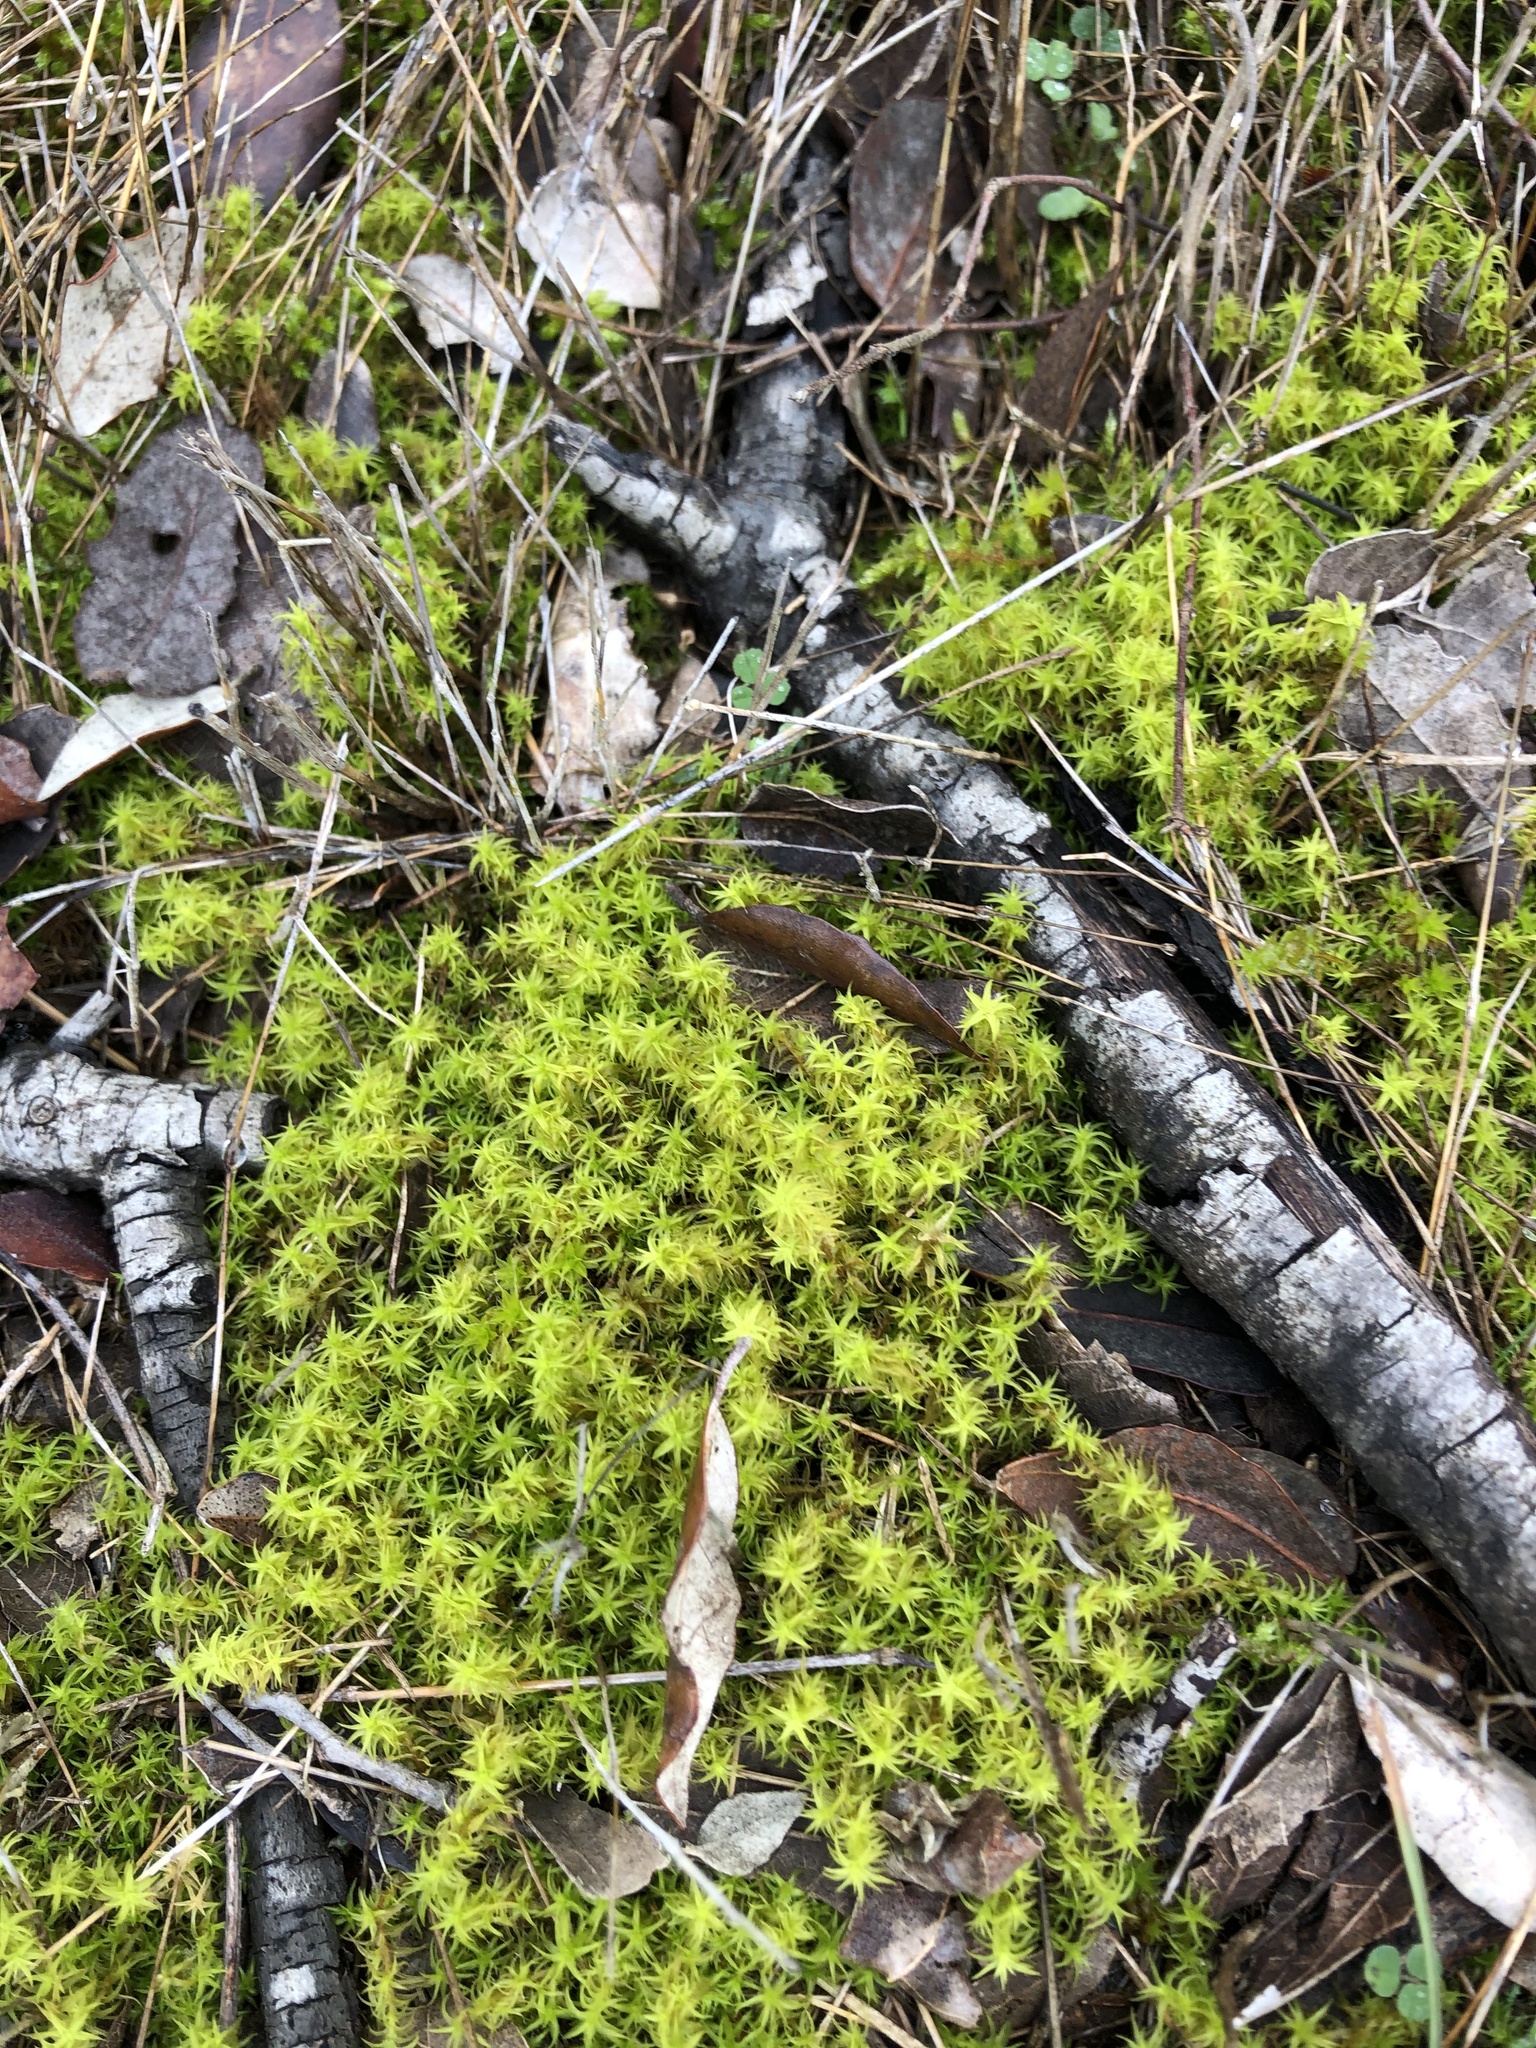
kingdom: Plantae
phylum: Bryophyta
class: Bryopsida
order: Pottiales
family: Pottiaceae
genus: Pleurochaete
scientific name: Pleurochaete squarrosa
